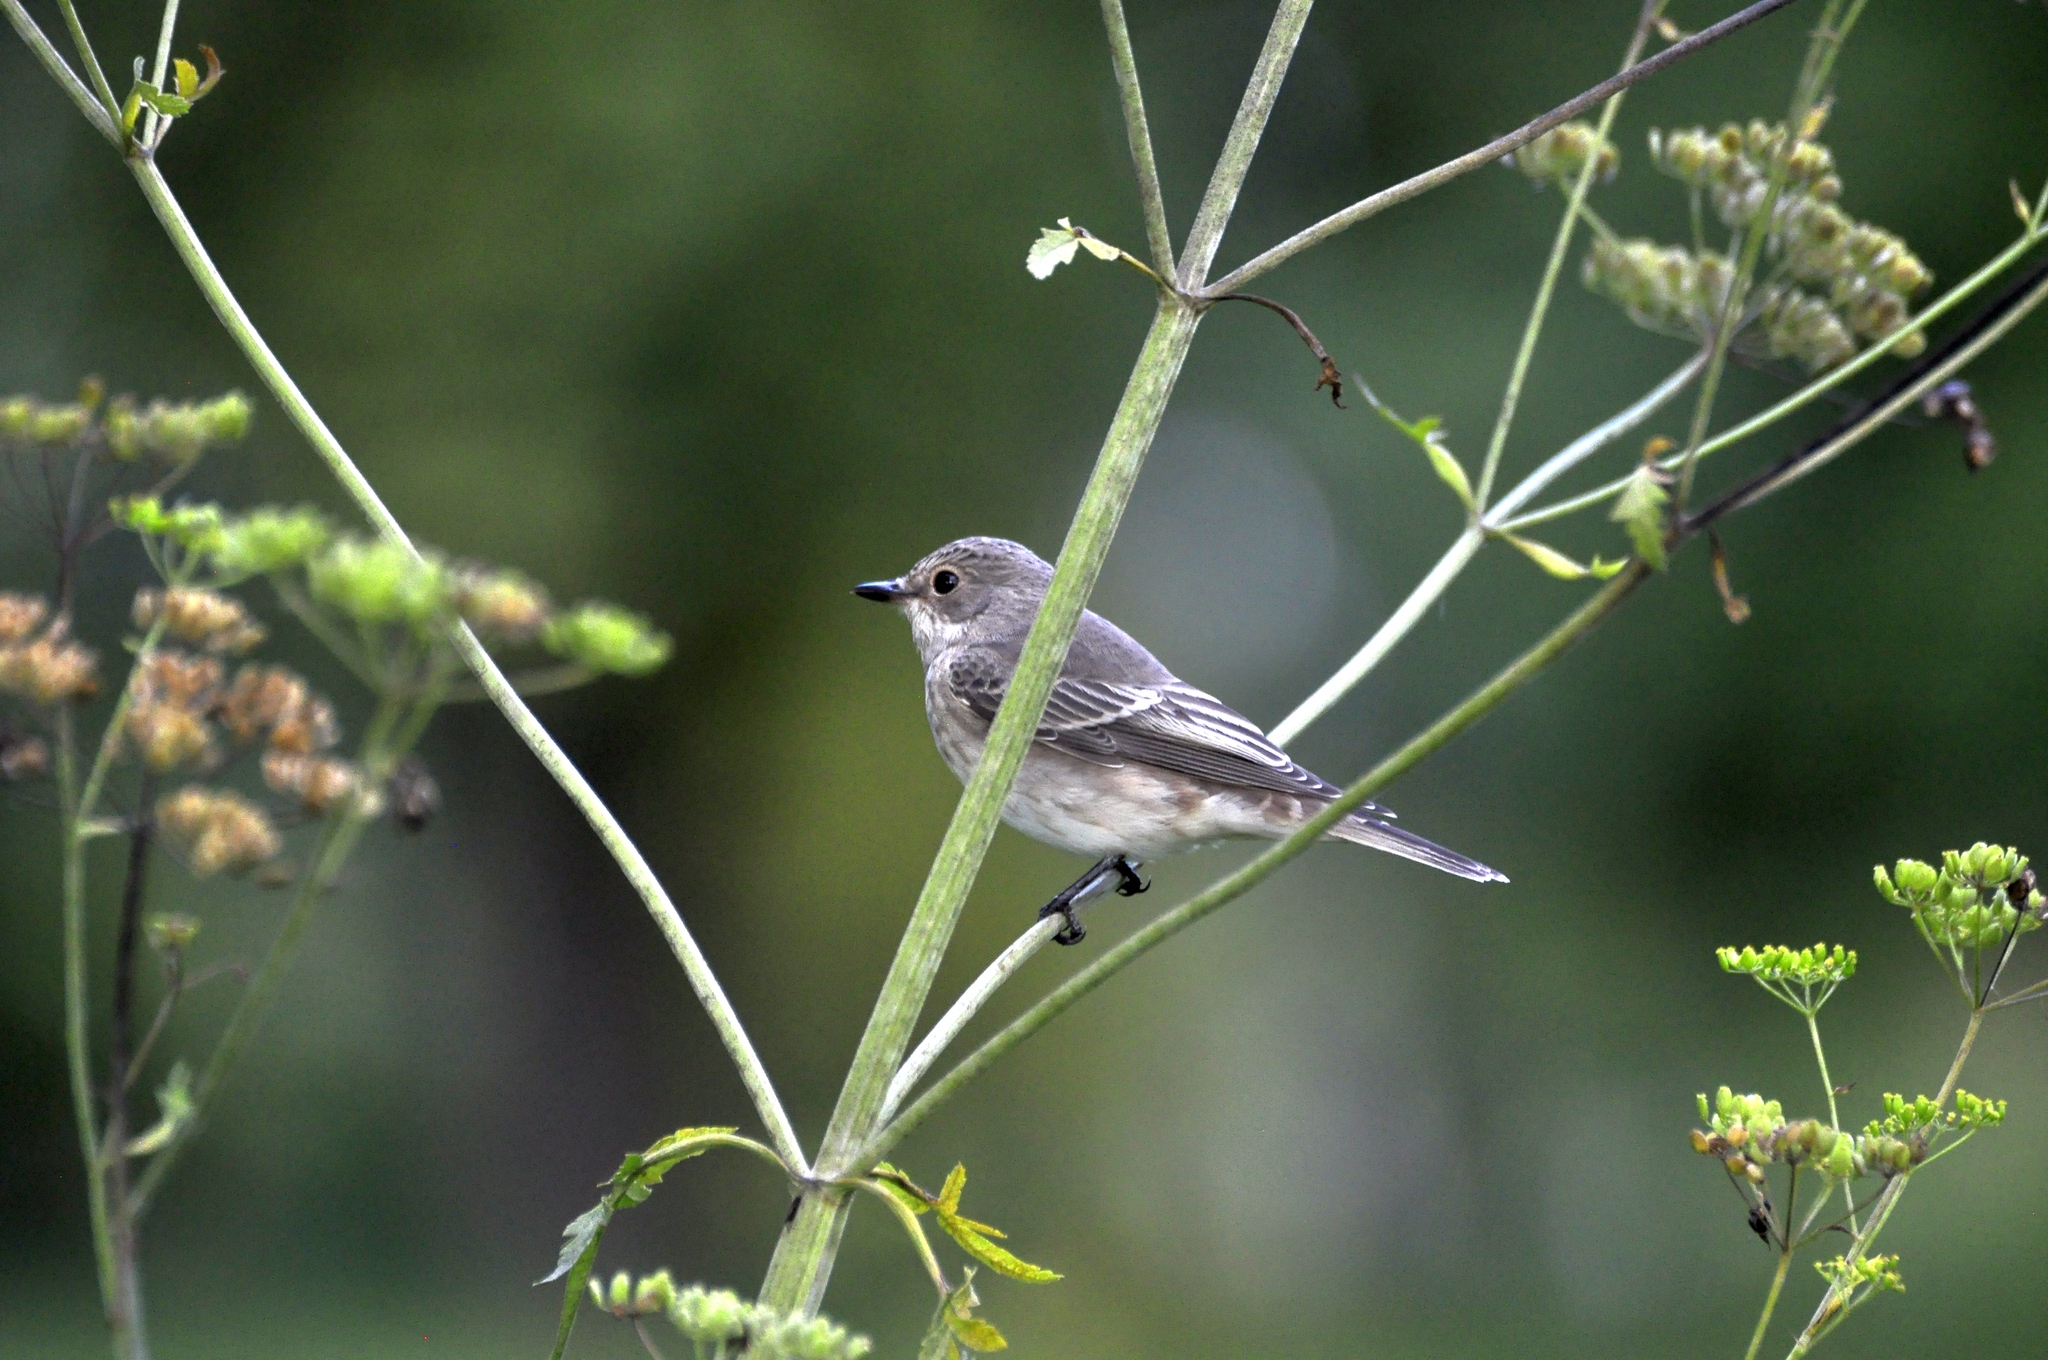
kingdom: Animalia
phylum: Chordata
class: Aves
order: Passeriformes
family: Muscicapidae
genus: Muscicapa
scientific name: Muscicapa striata
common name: Spotted flycatcher
